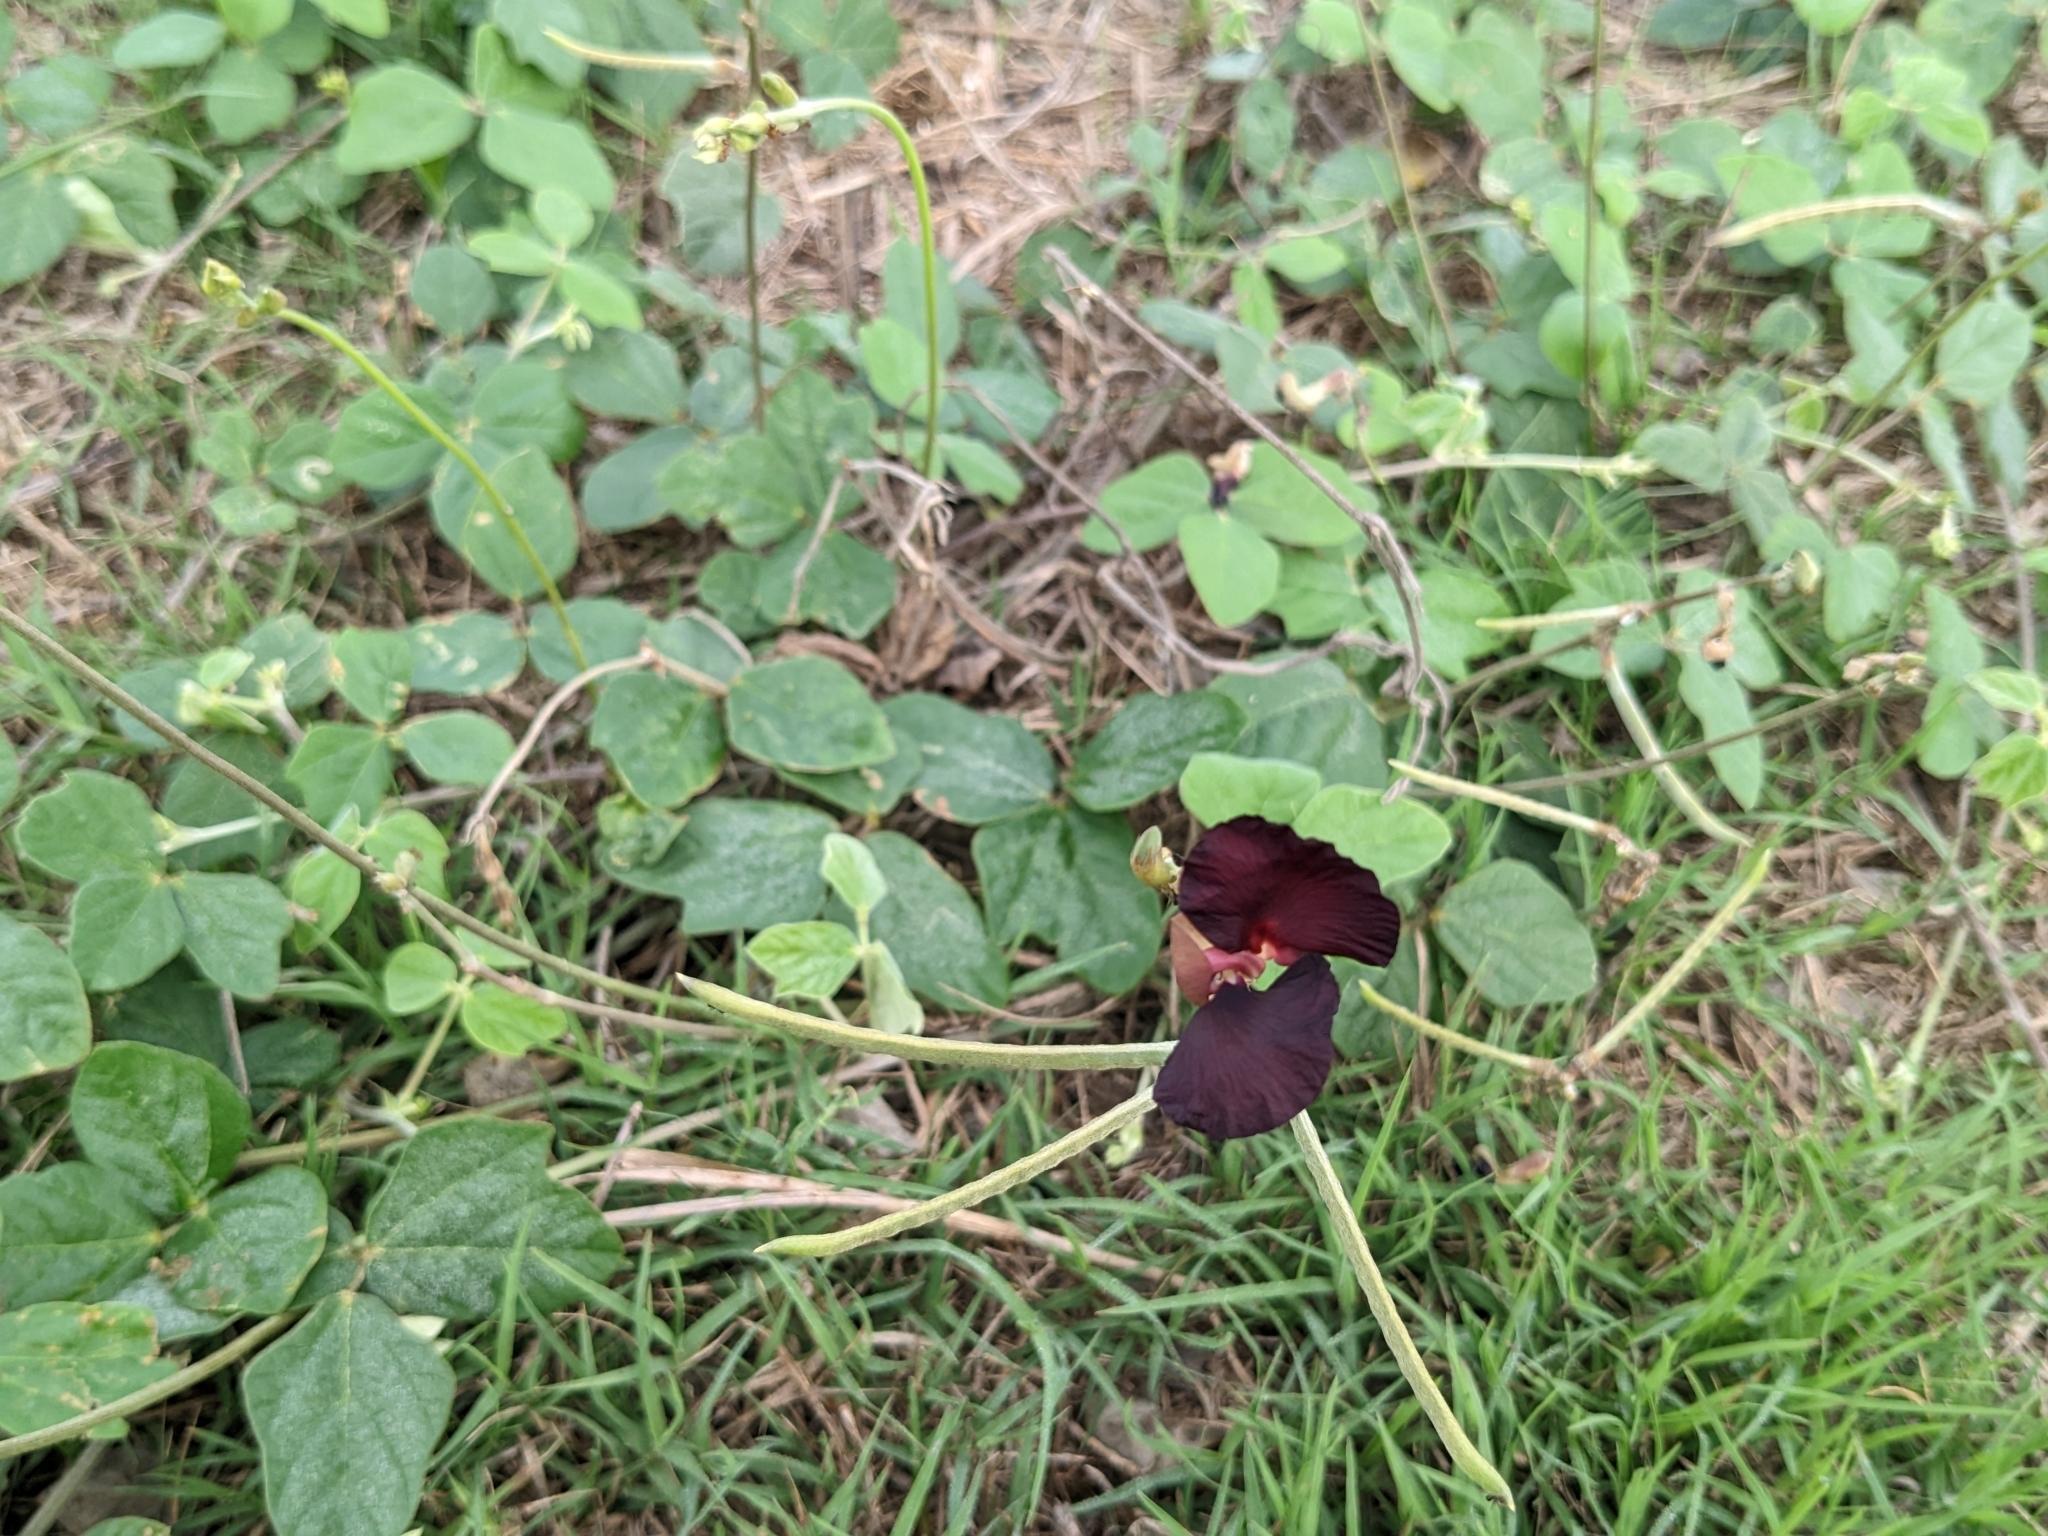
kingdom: Plantae
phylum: Tracheophyta
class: Magnoliopsida
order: Fabales
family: Fabaceae
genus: Macroptilium
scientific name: Macroptilium atropurpureum
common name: Purple bushbean
